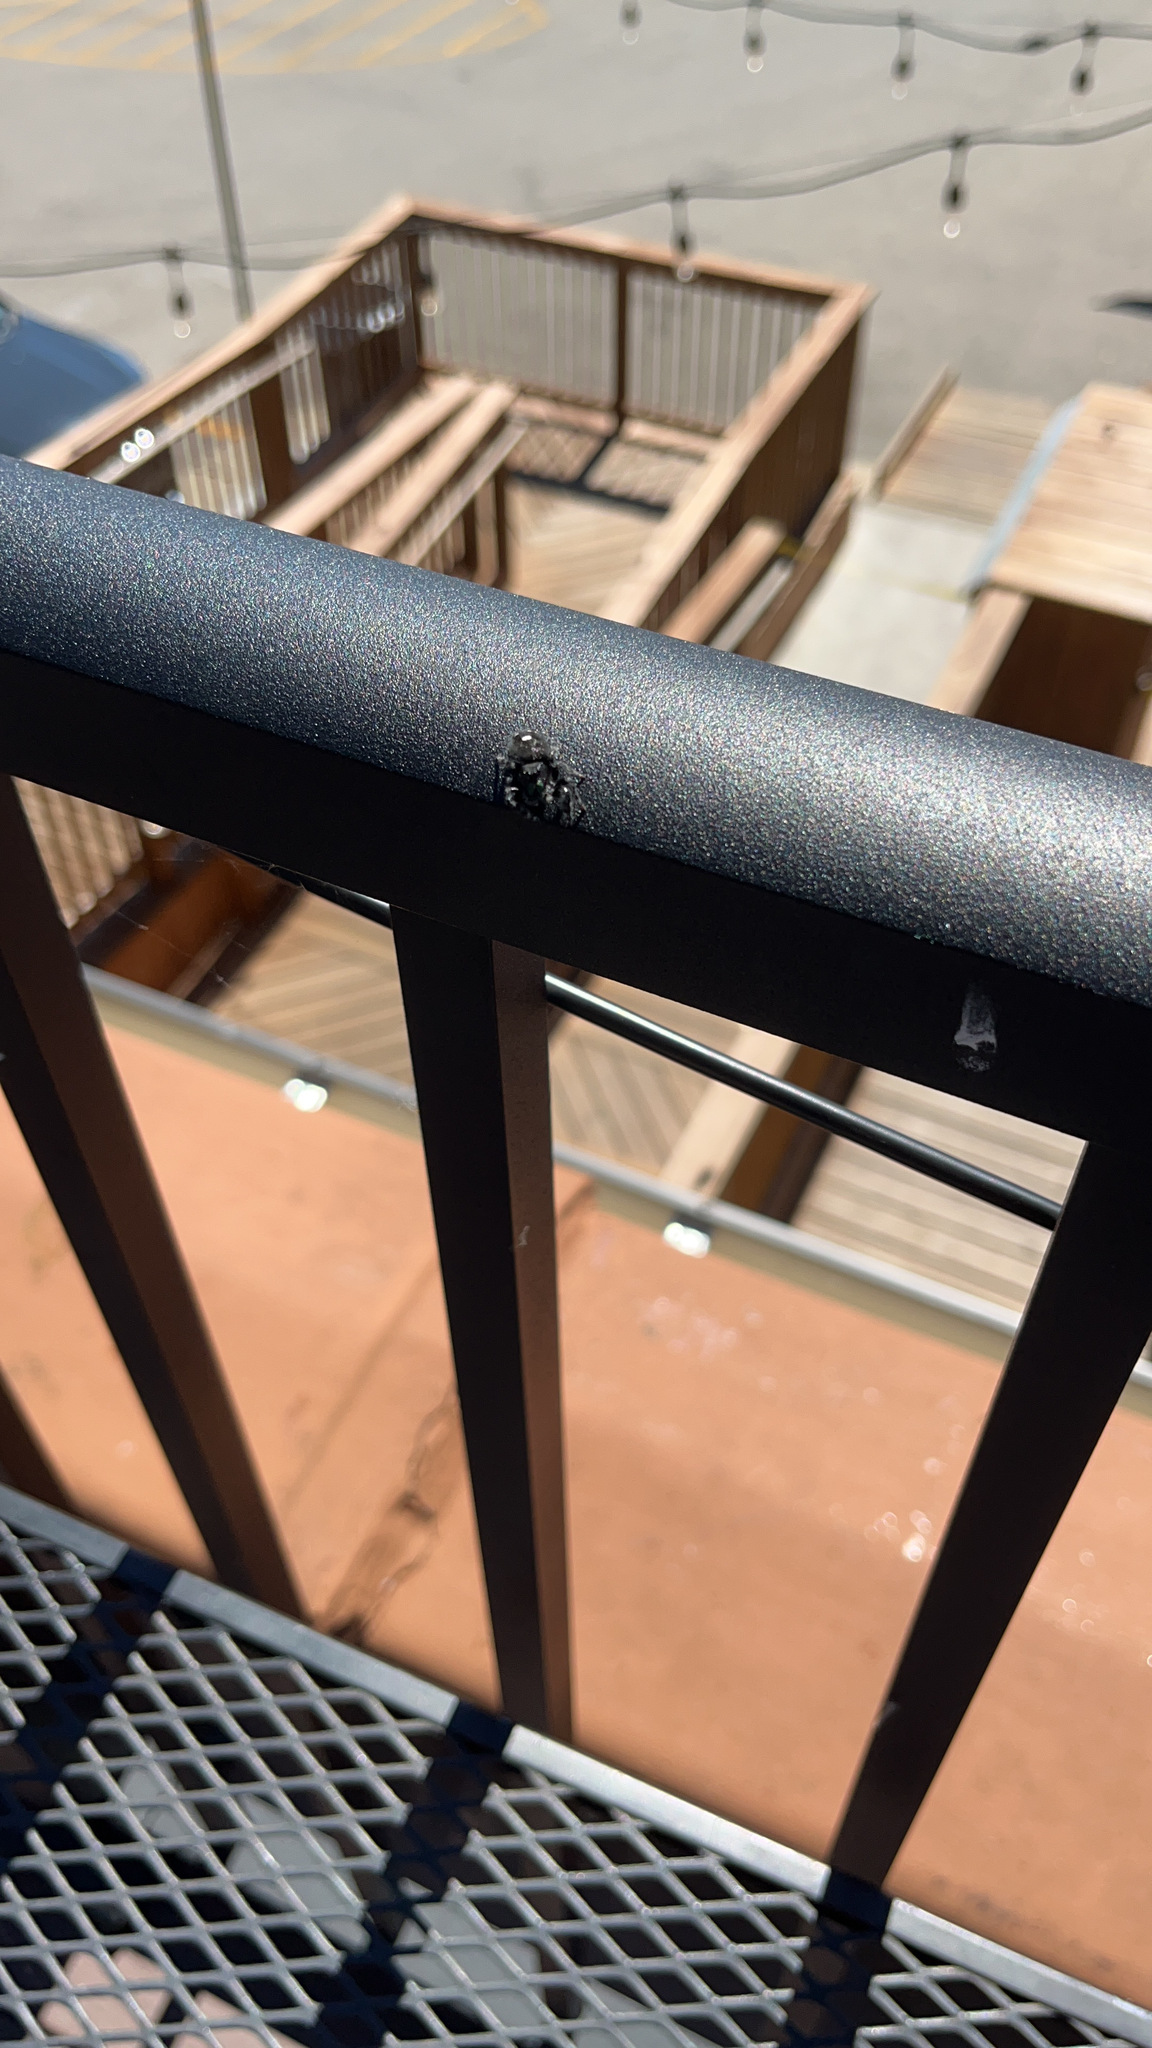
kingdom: Animalia
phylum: Arthropoda
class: Arachnida
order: Araneae
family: Salticidae
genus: Phidippus
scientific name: Phidippus audax
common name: Bold jumper
